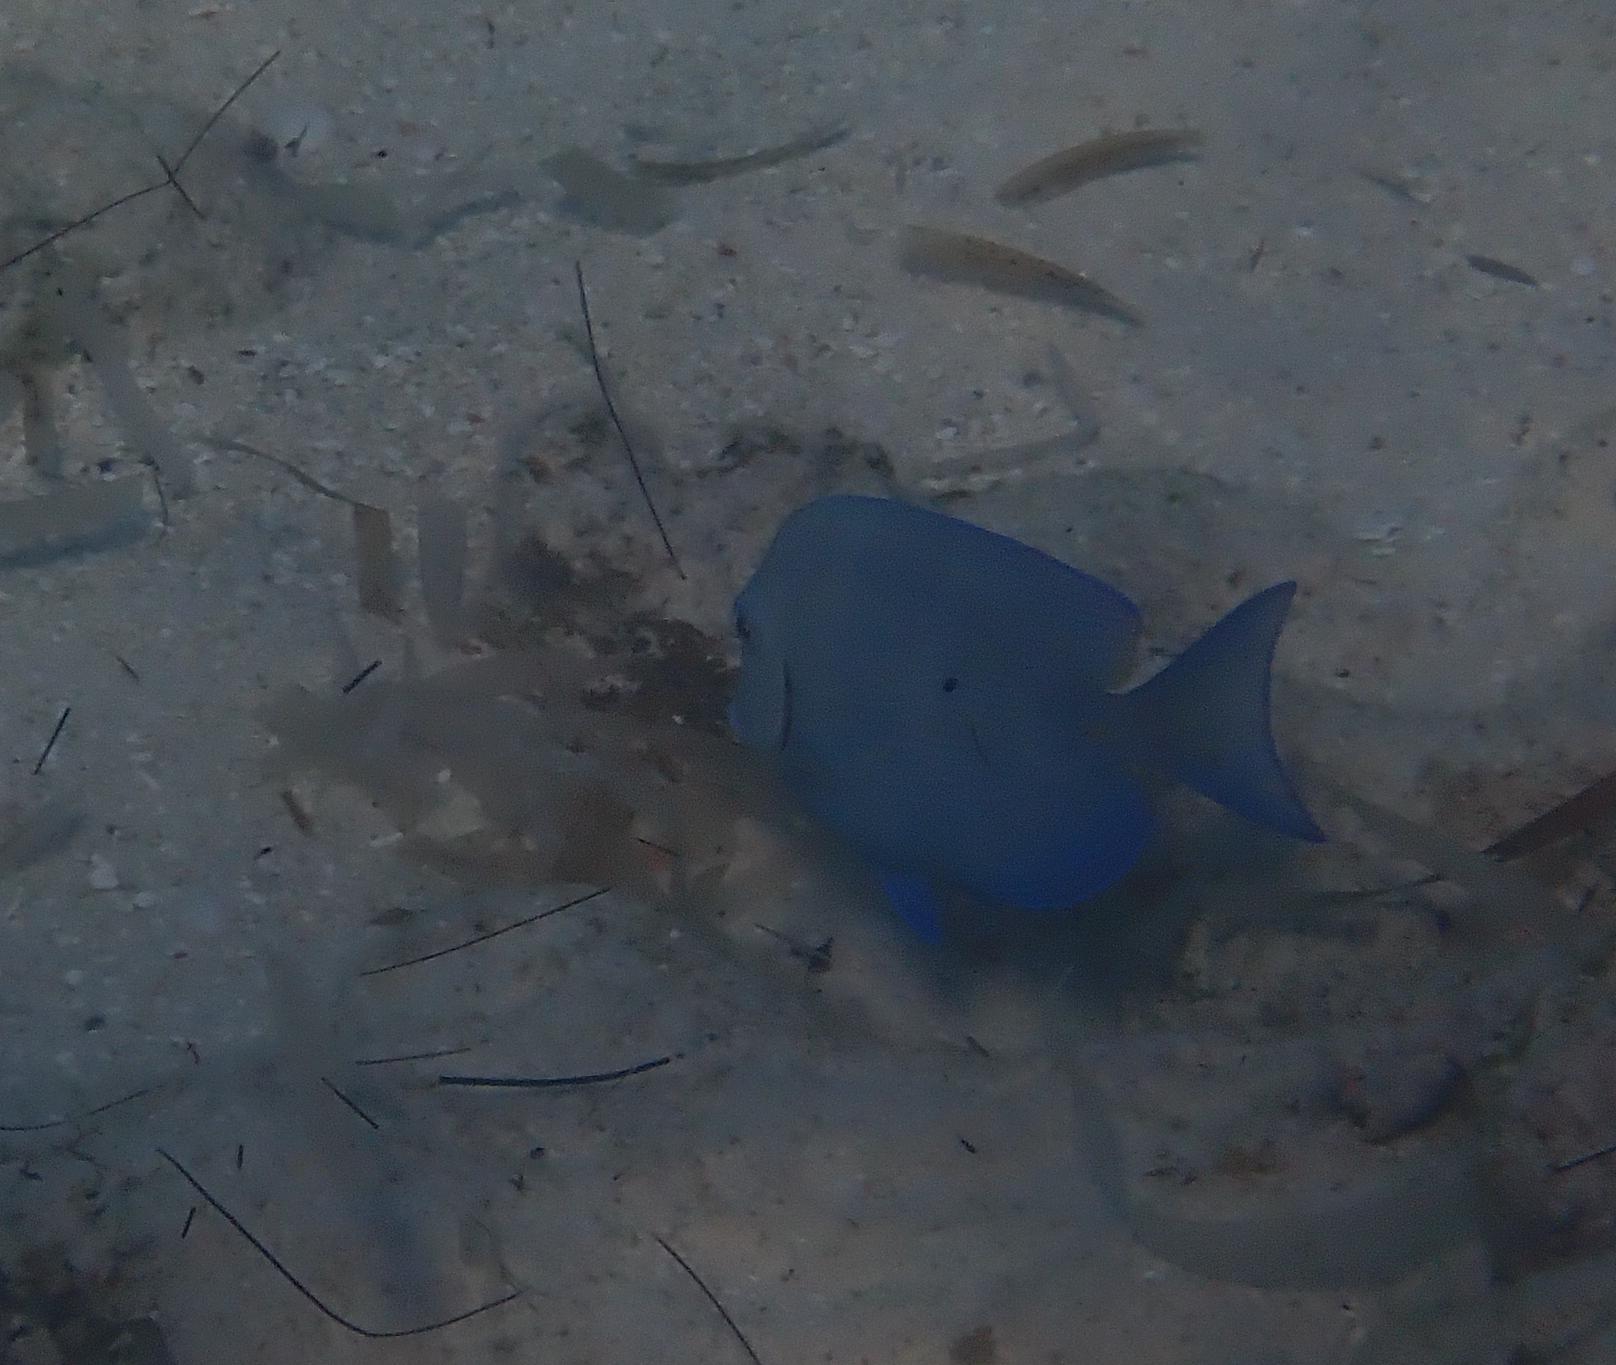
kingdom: Animalia
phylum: Chordata
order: Perciformes
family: Acanthuridae
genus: Acanthurus
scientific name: Acanthurus coeruleus
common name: Blue tang
